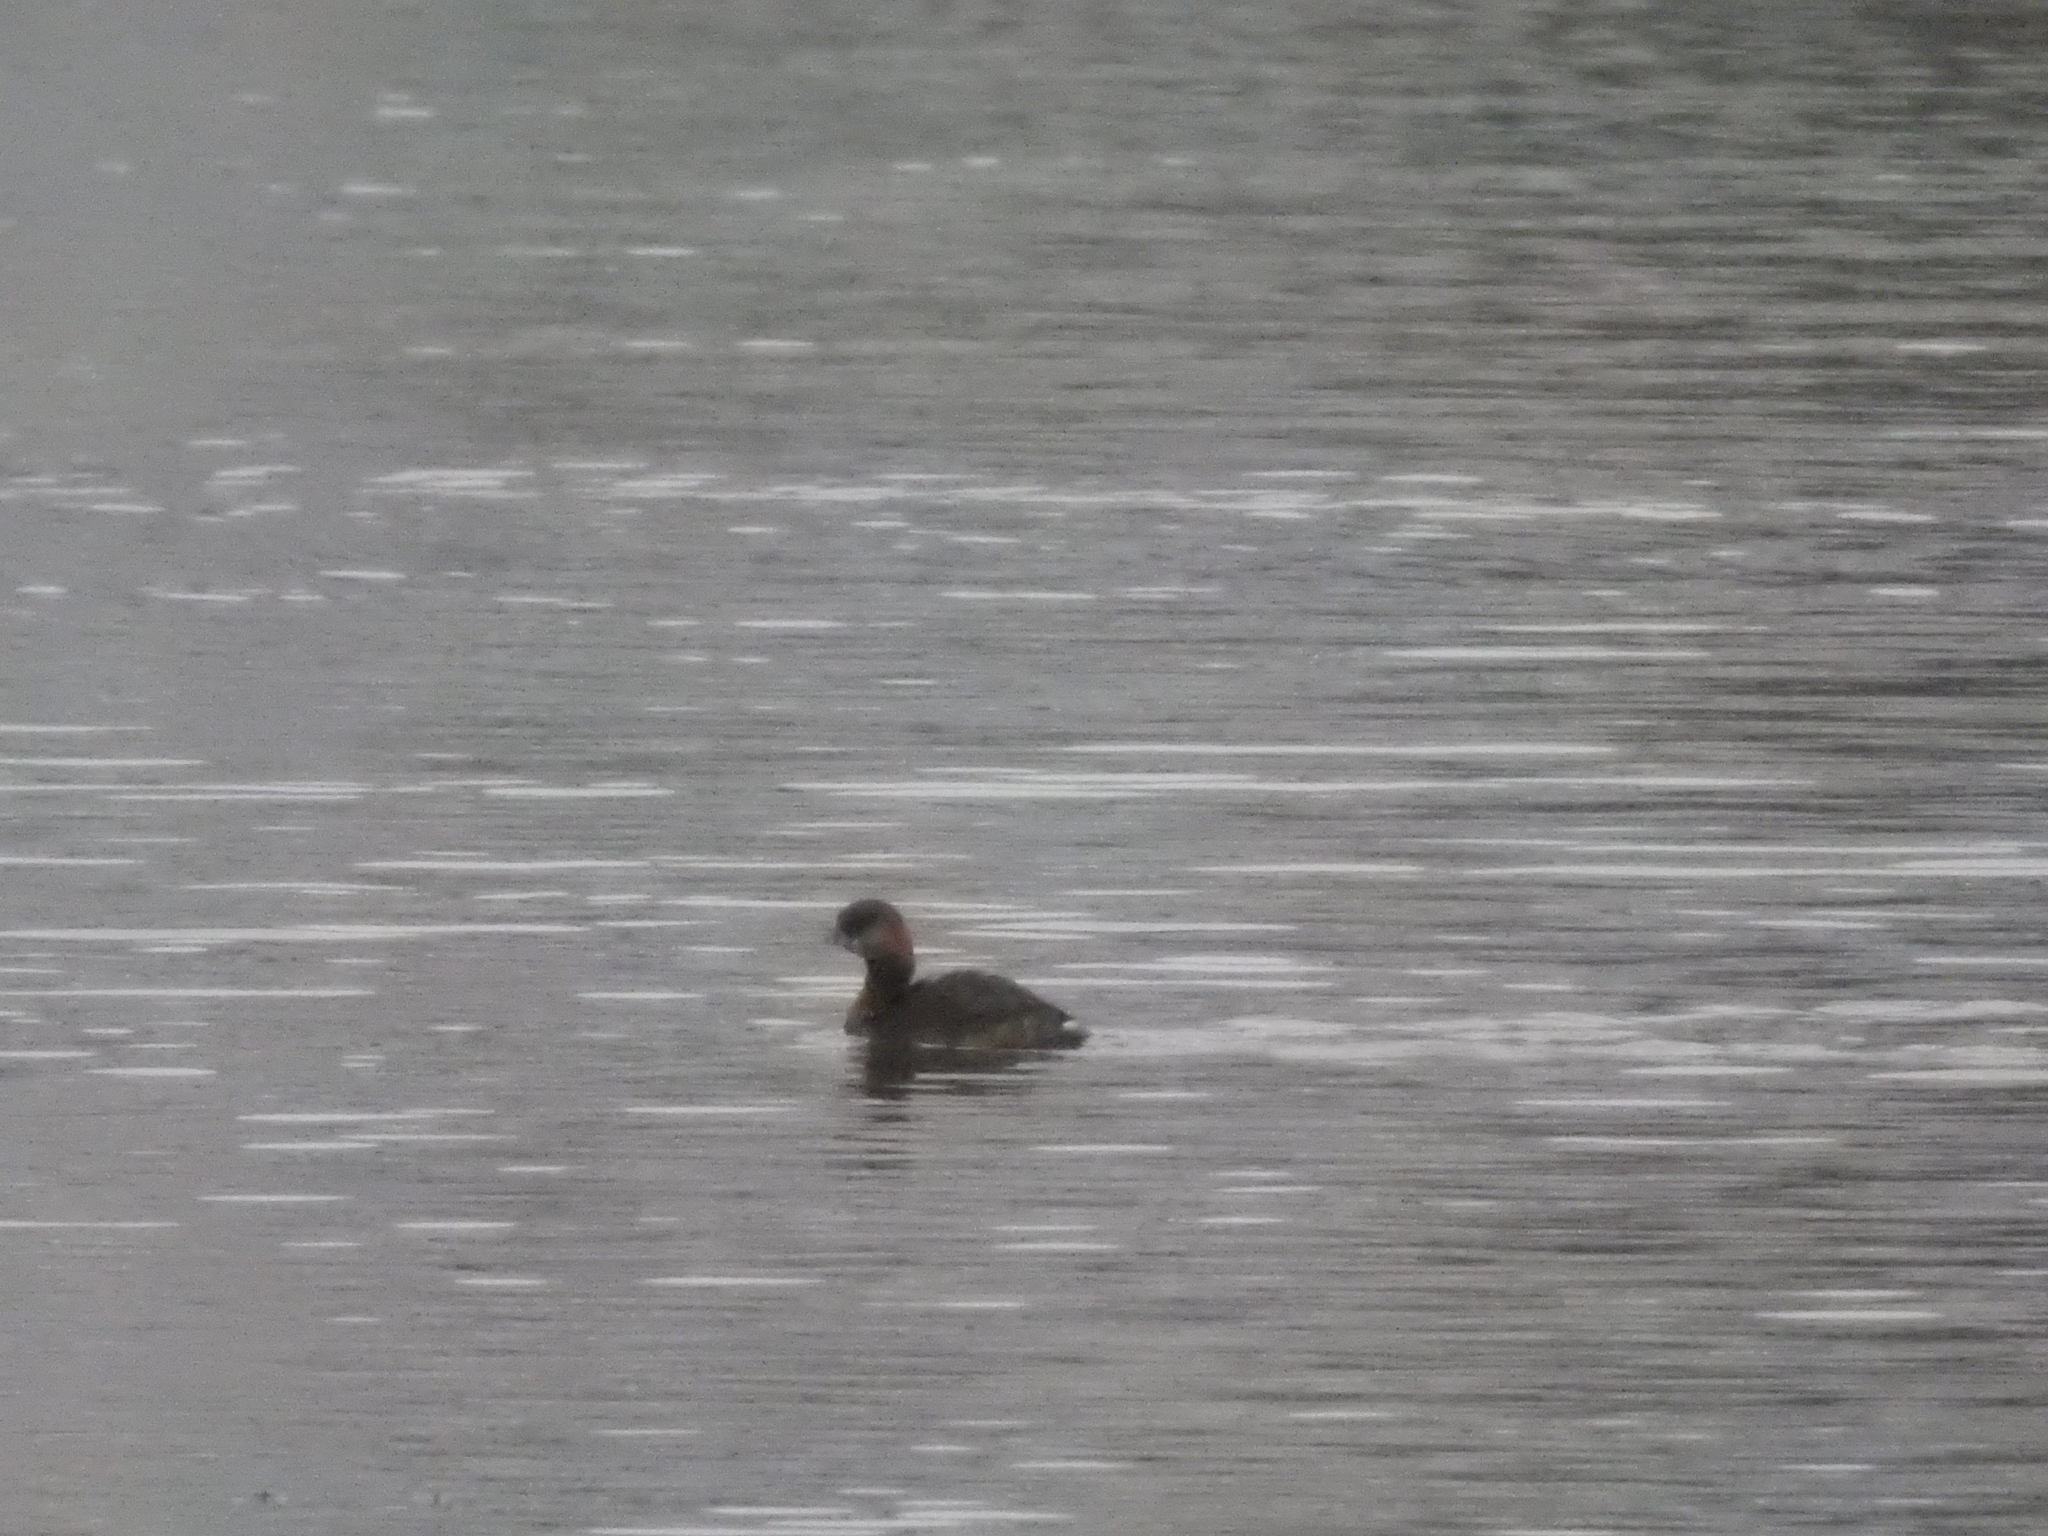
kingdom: Animalia
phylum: Chordata
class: Aves
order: Podicipediformes
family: Podicipedidae
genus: Podilymbus
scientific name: Podilymbus podiceps
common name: Pied-billed grebe
